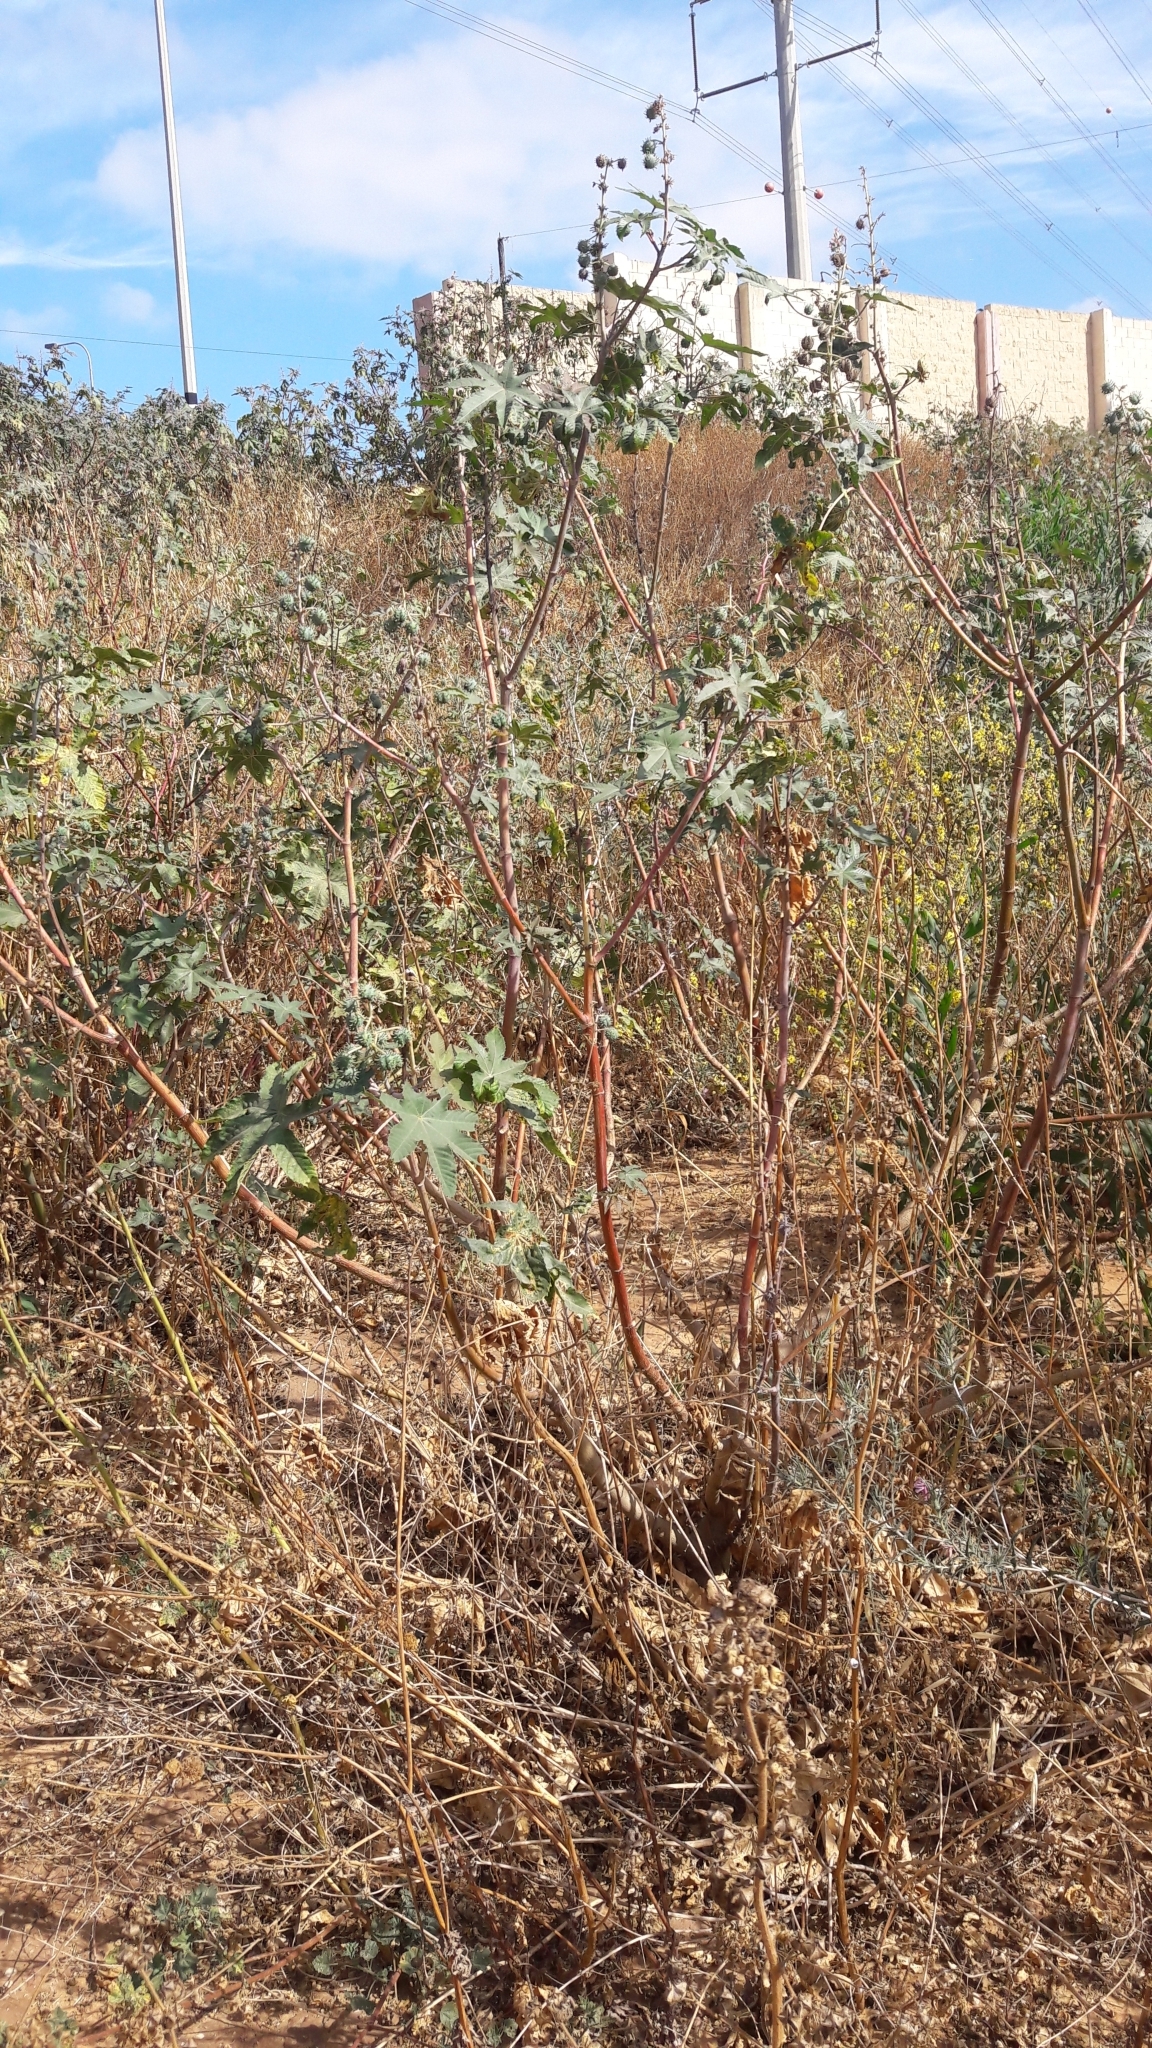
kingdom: Plantae
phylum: Tracheophyta
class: Magnoliopsida
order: Malpighiales
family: Euphorbiaceae
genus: Ricinus
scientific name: Ricinus communis
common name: Castor-oil-plant
